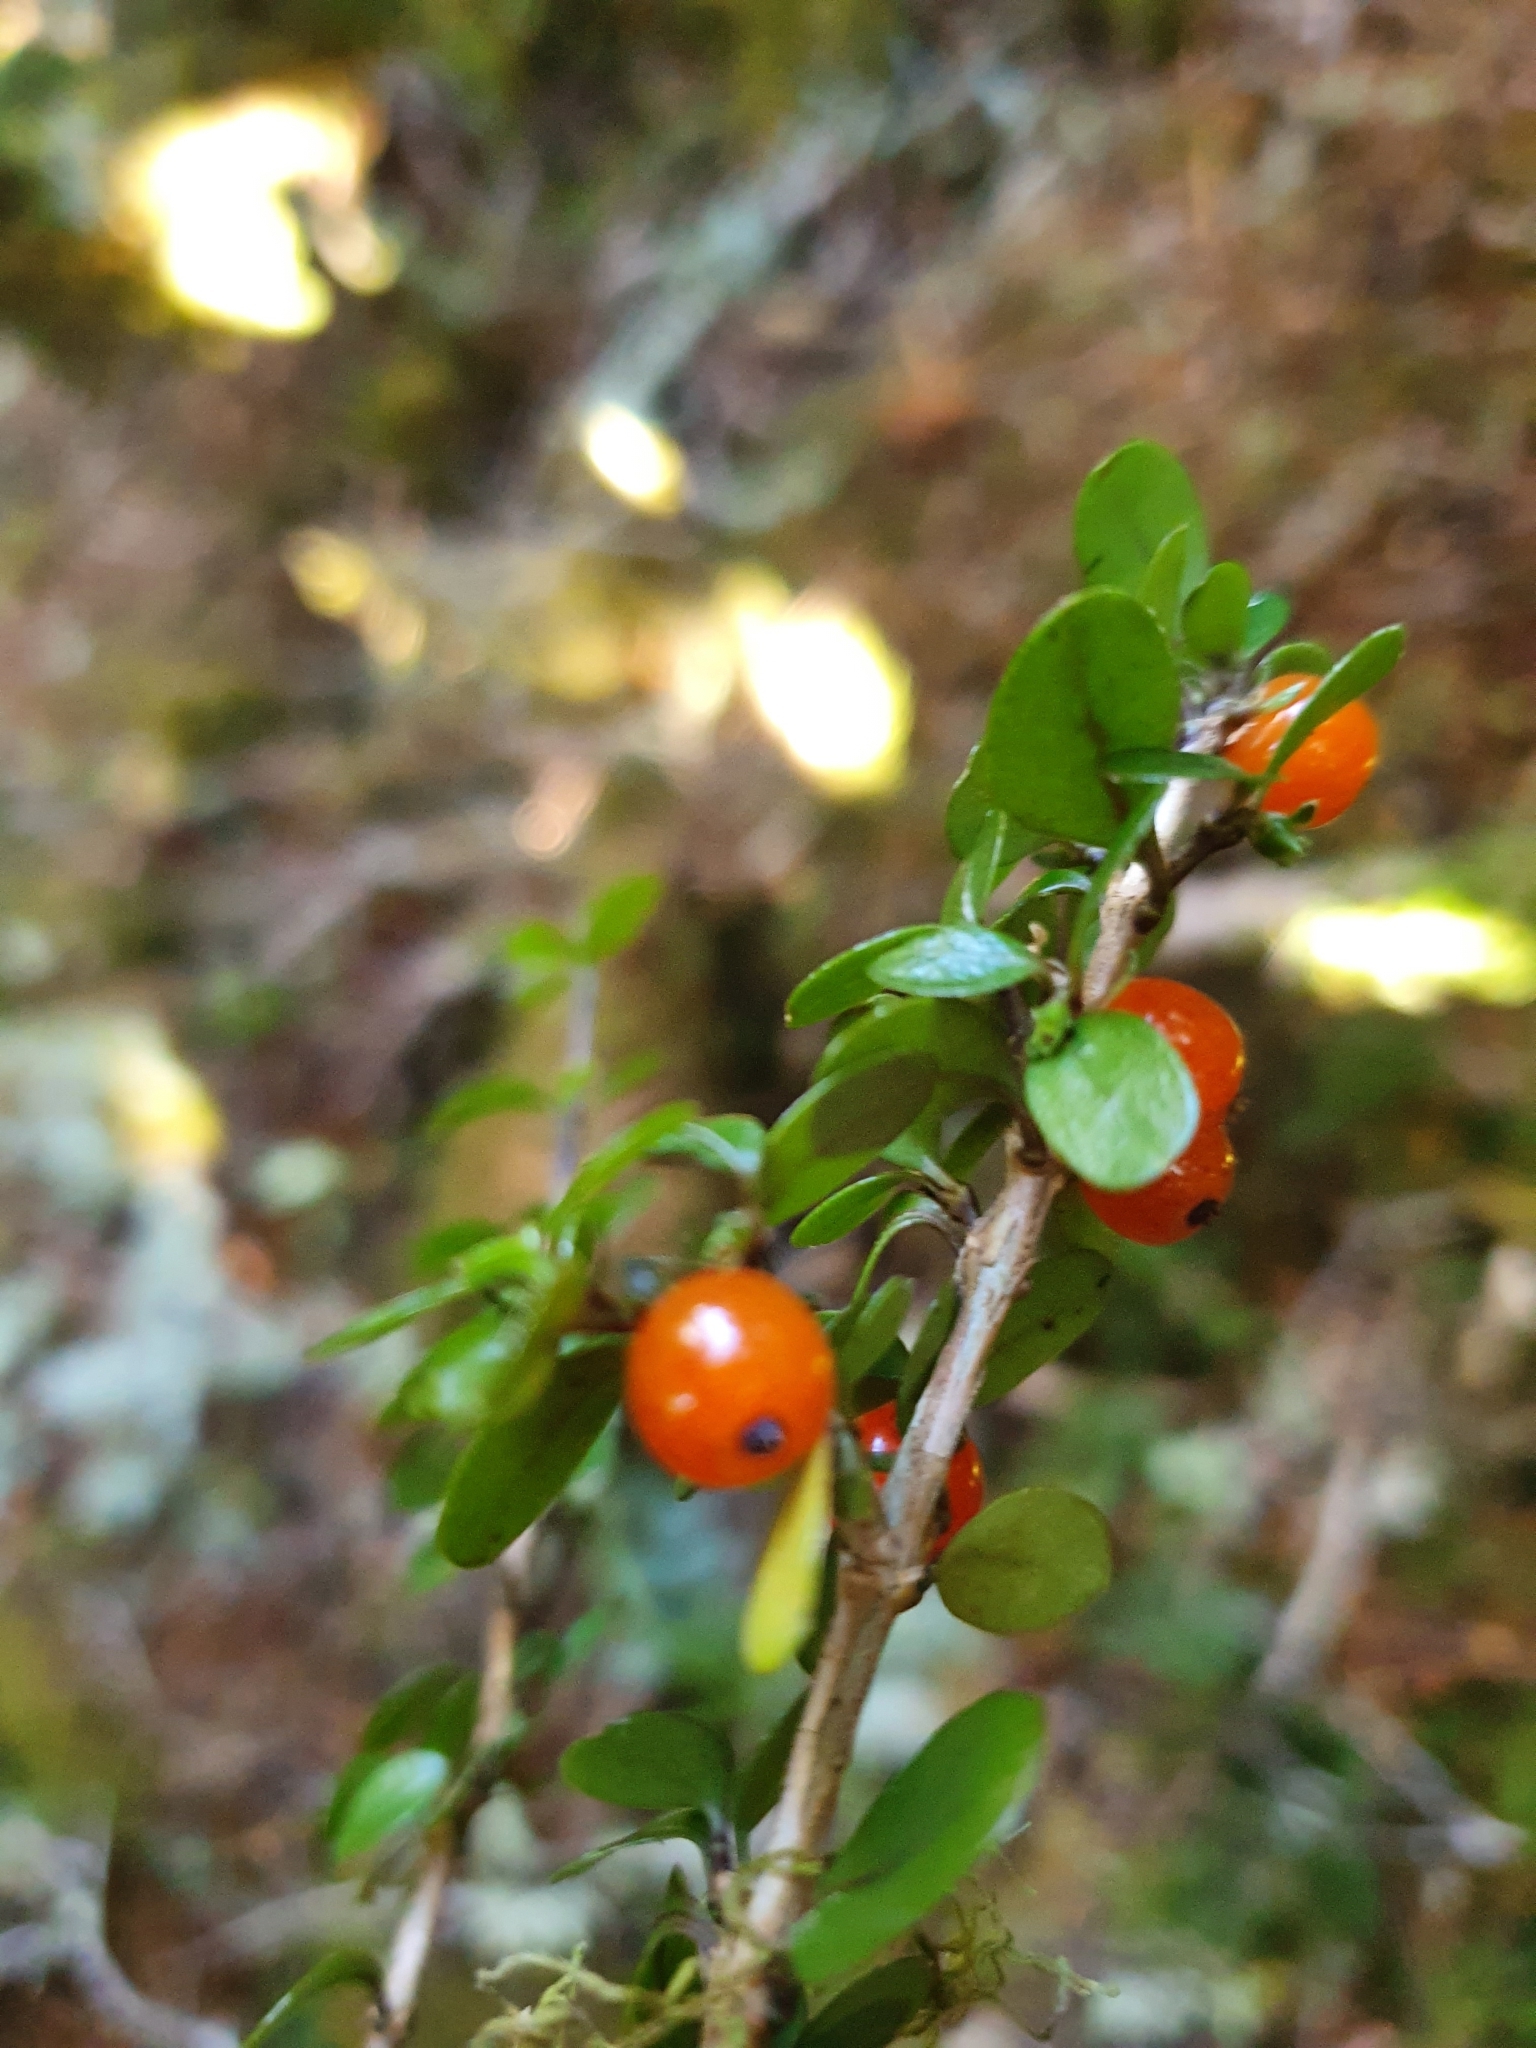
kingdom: Plantae
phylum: Tracheophyta
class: Magnoliopsida
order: Gentianales
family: Rubiaceae
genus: Coprosma
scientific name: Coprosma colensoi
